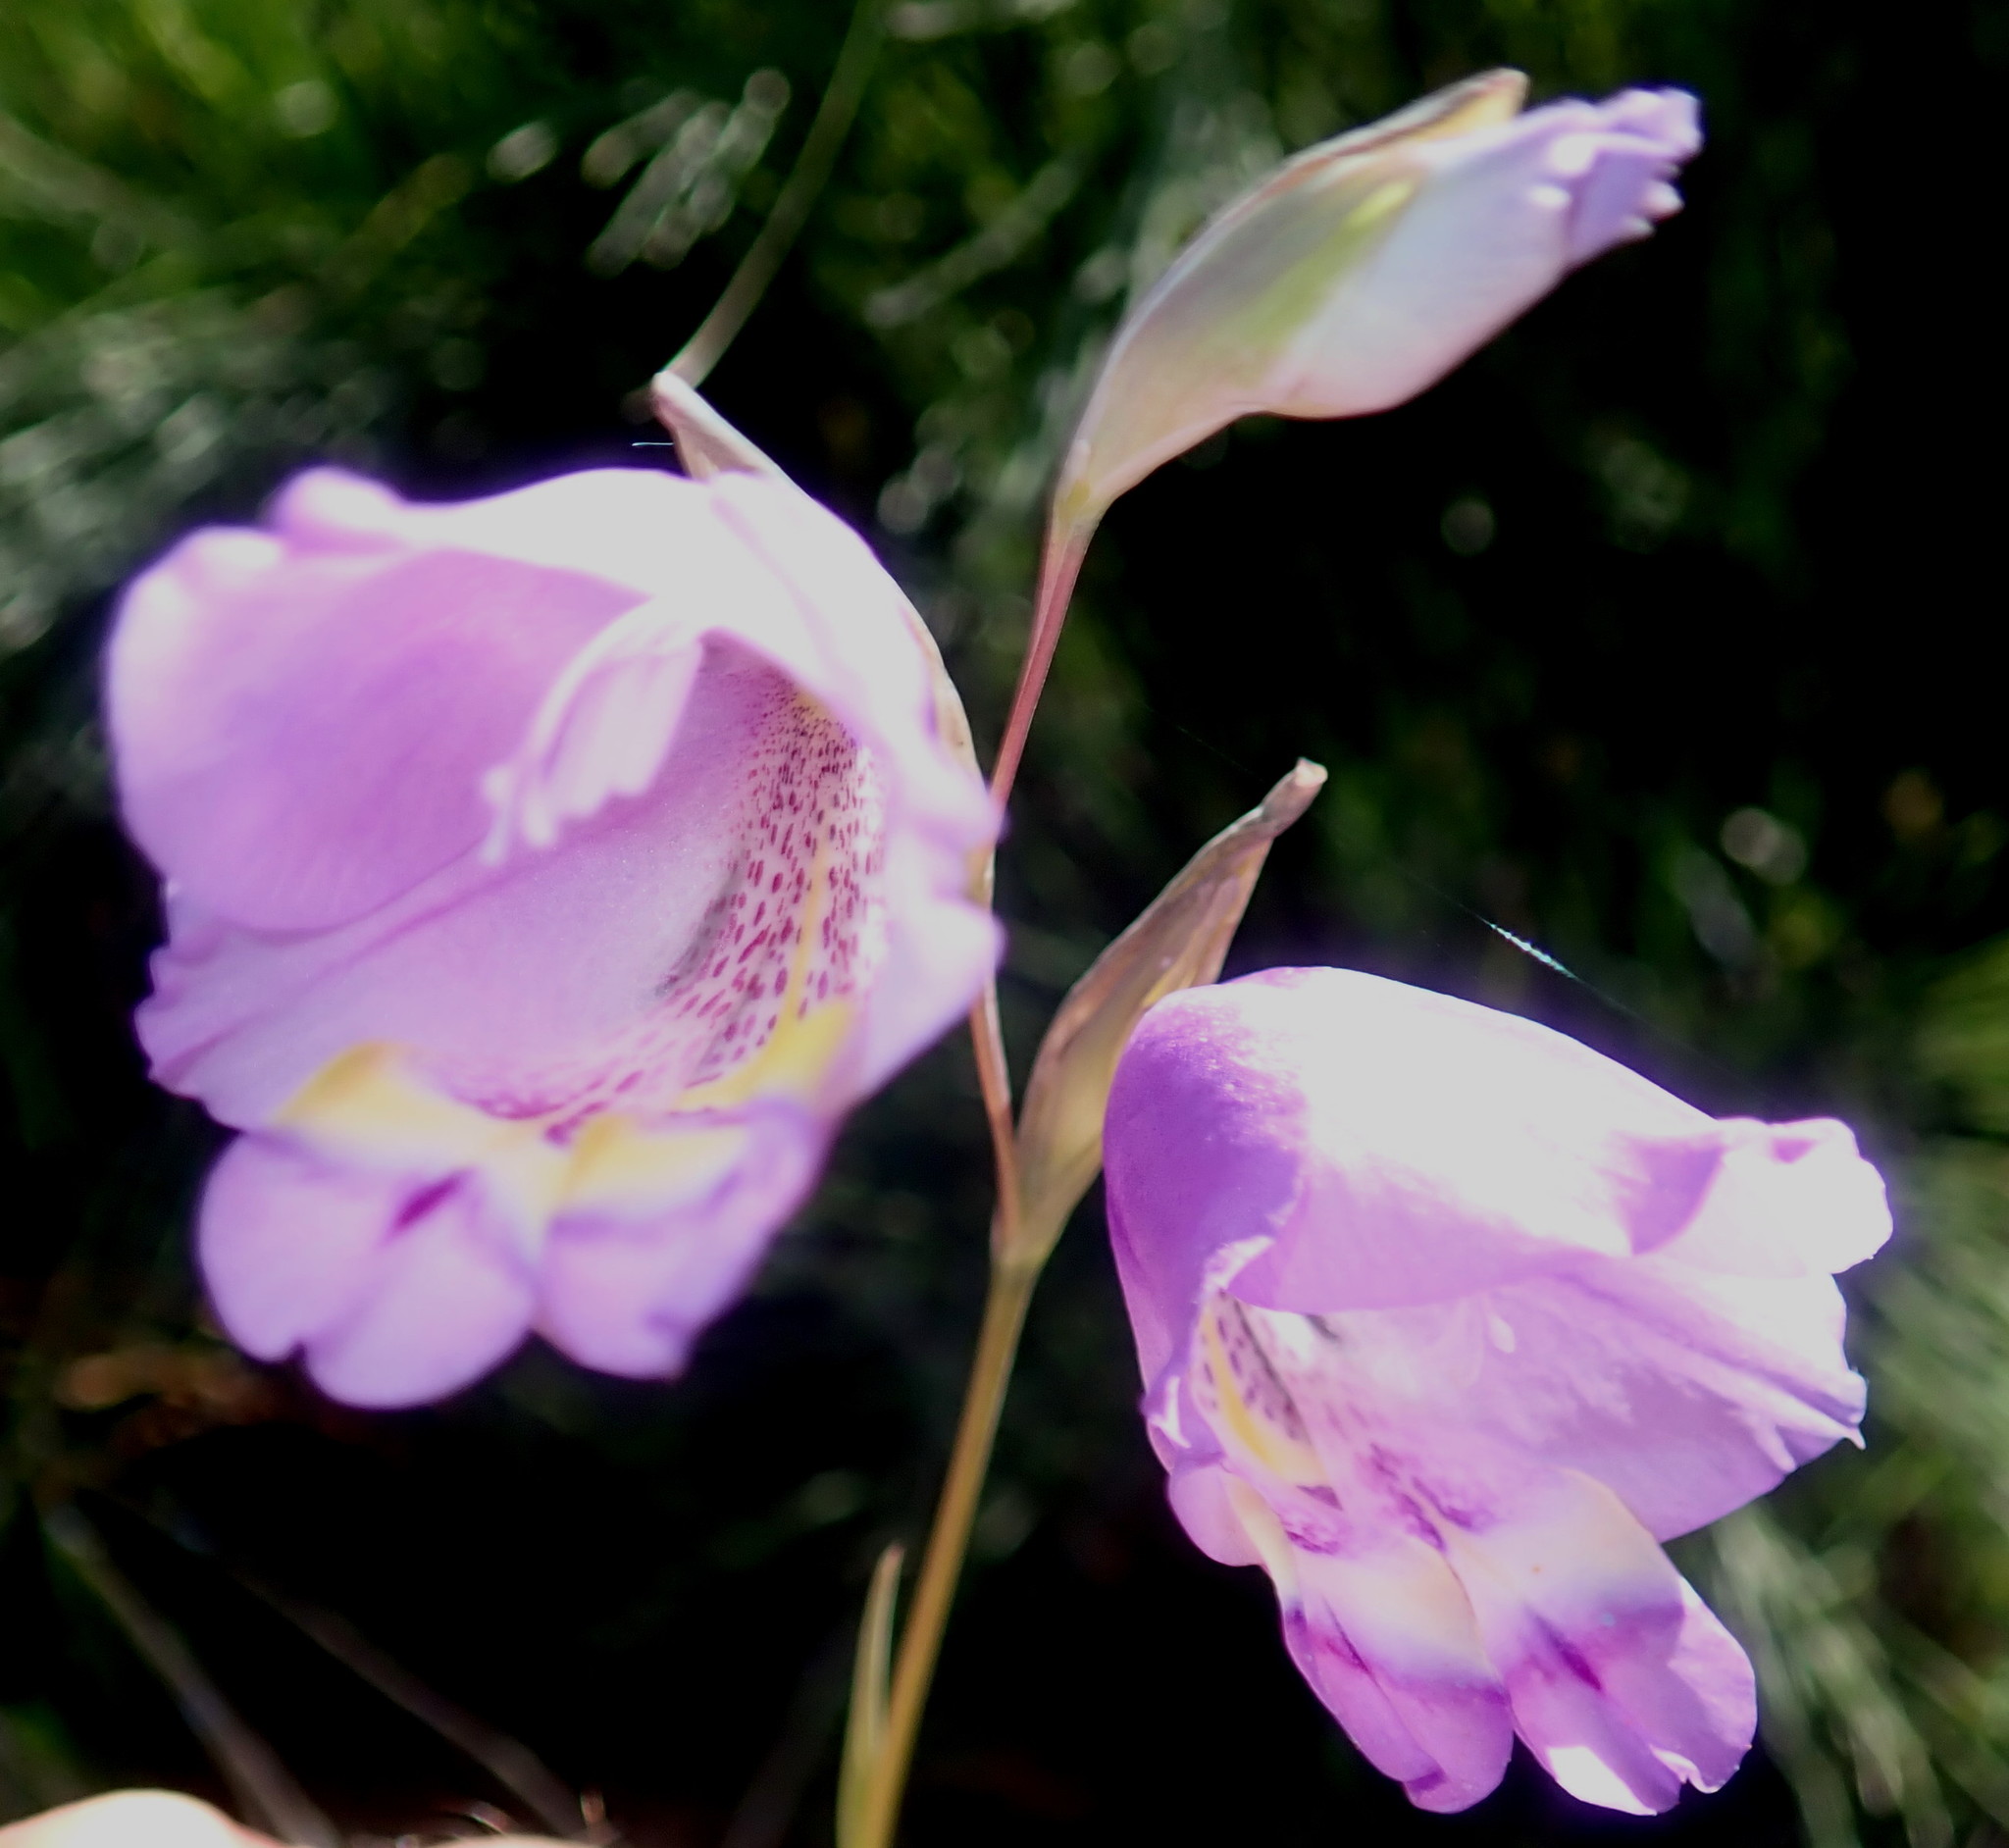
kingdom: Plantae
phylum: Tracheophyta
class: Liliopsida
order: Asparagales
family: Iridaceae
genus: Gladiolus
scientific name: Gladiolus rogersii
